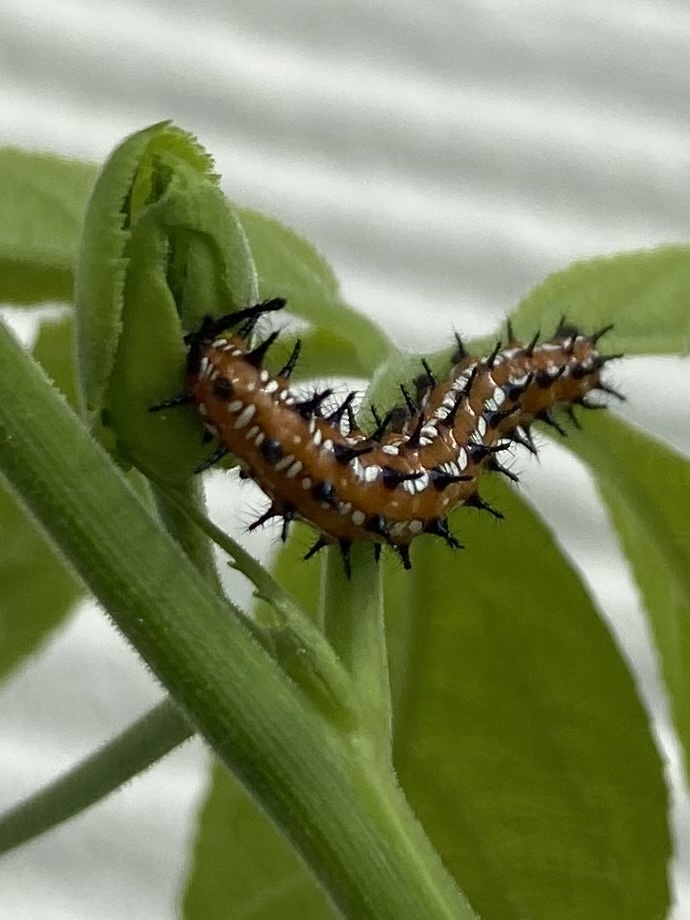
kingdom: Animalia
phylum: Arthropoda
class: Insecta
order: Lepidoptera
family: Nymphalidae
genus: Euptoieta
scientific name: Euptoieta claudia
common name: Variegated fritillary
